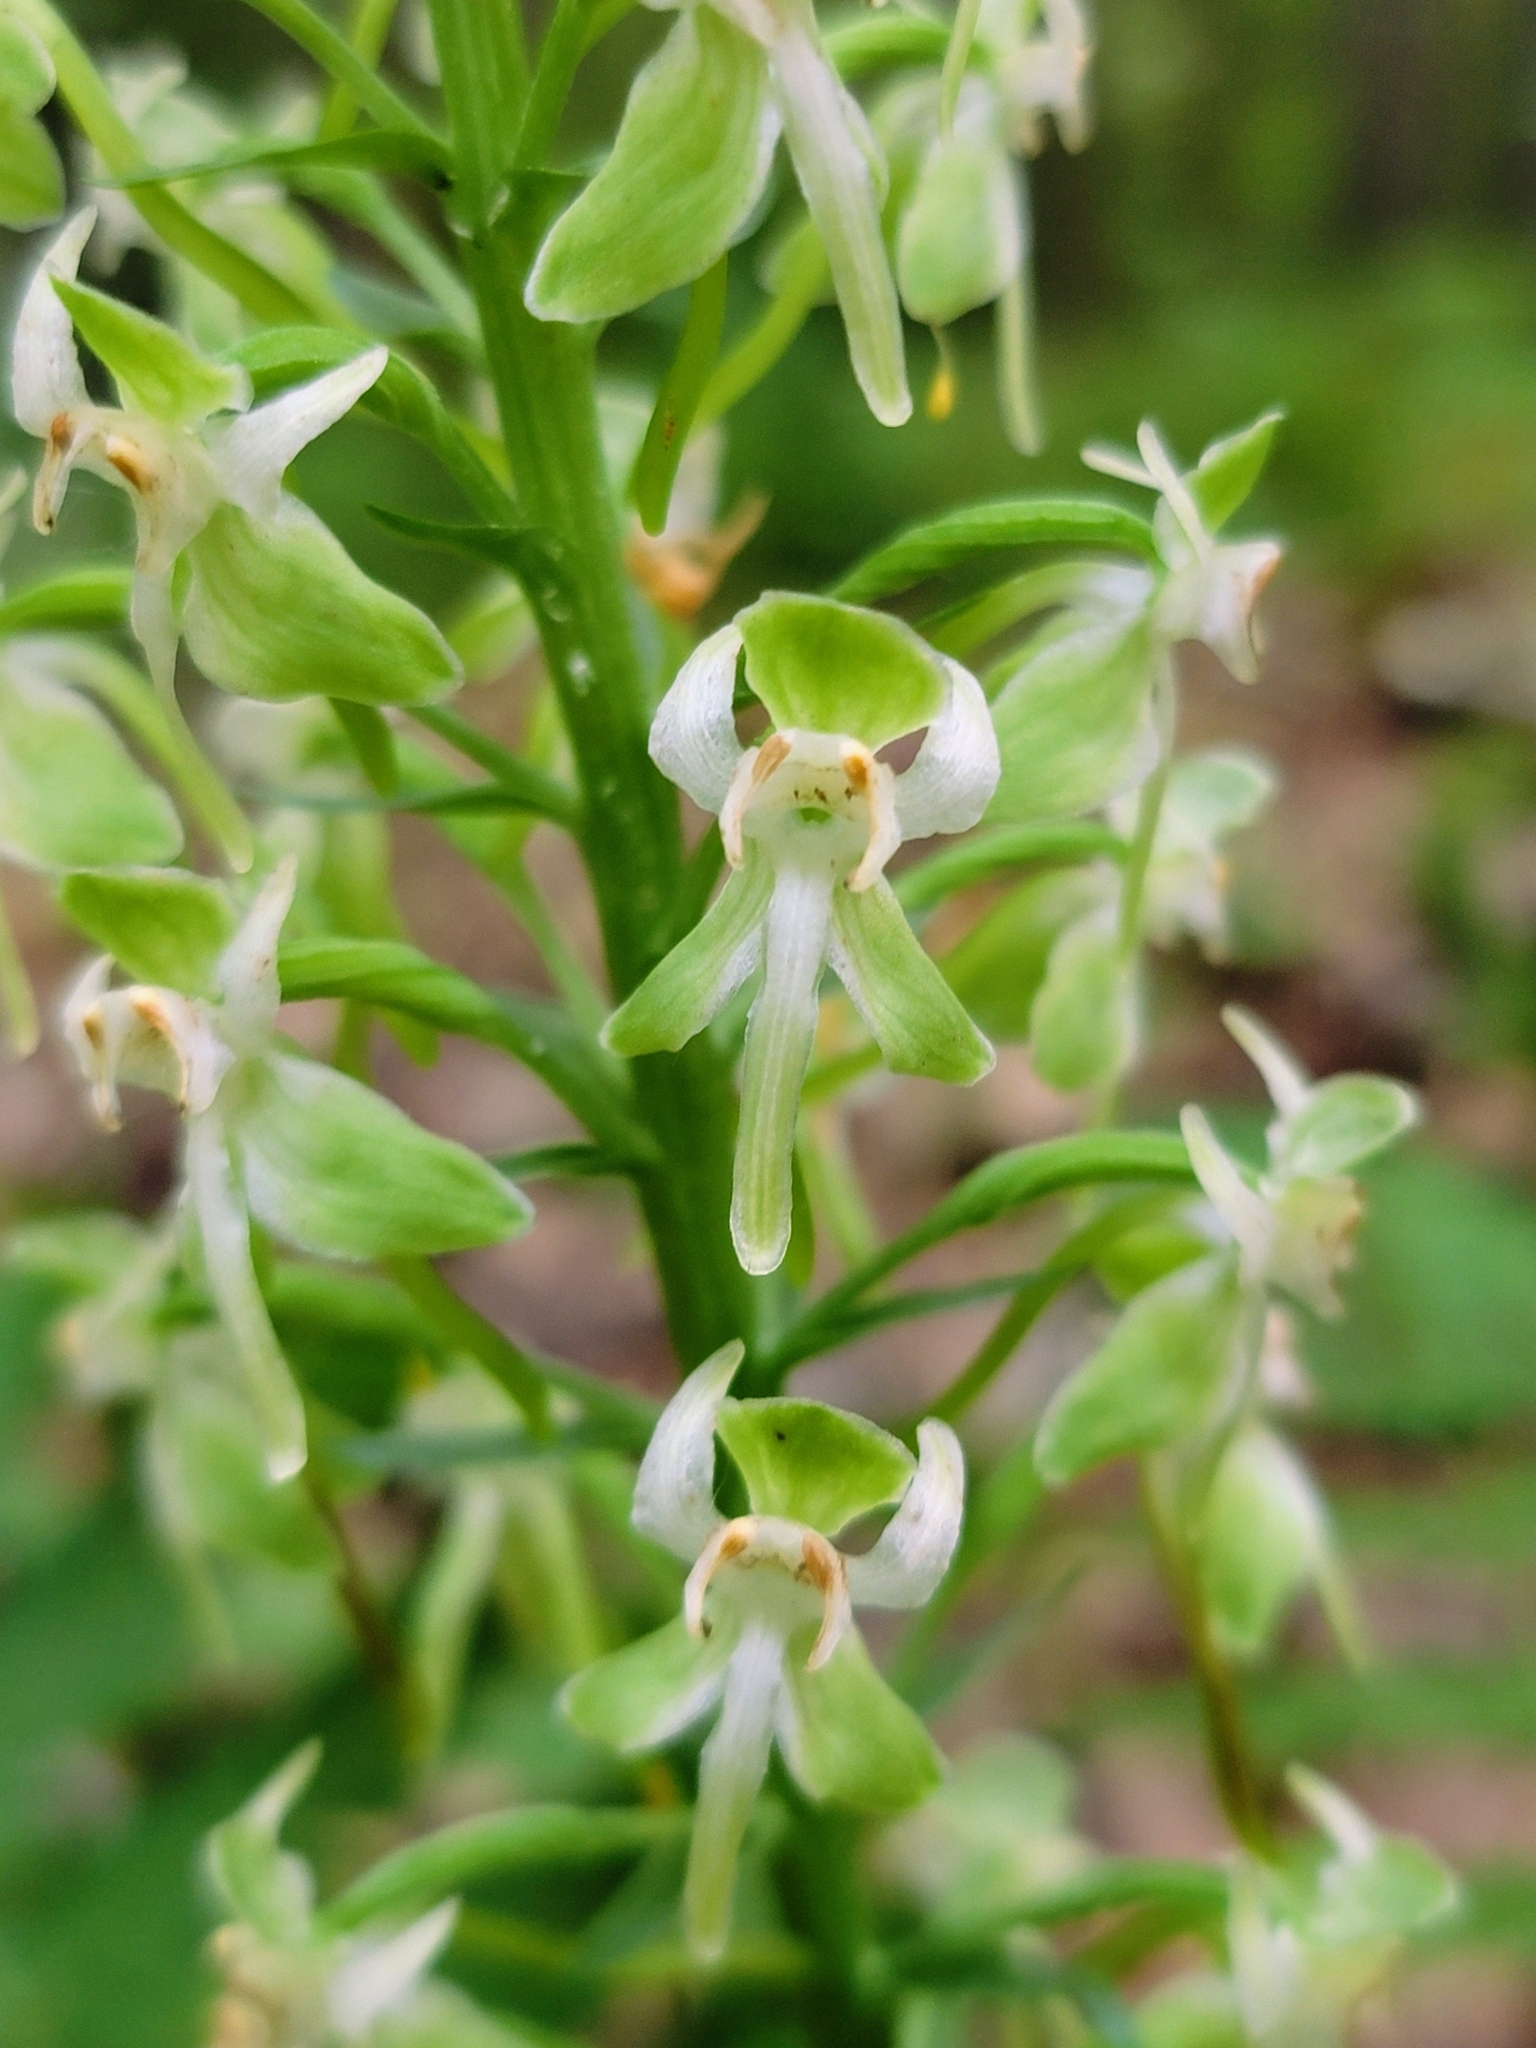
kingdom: Plantae
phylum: Tracheophyta
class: Liliopsida
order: Asparagales
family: Orchidaceae
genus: Platanthera
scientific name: Platanthera orbiculata
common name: Large round-leaved orchid
